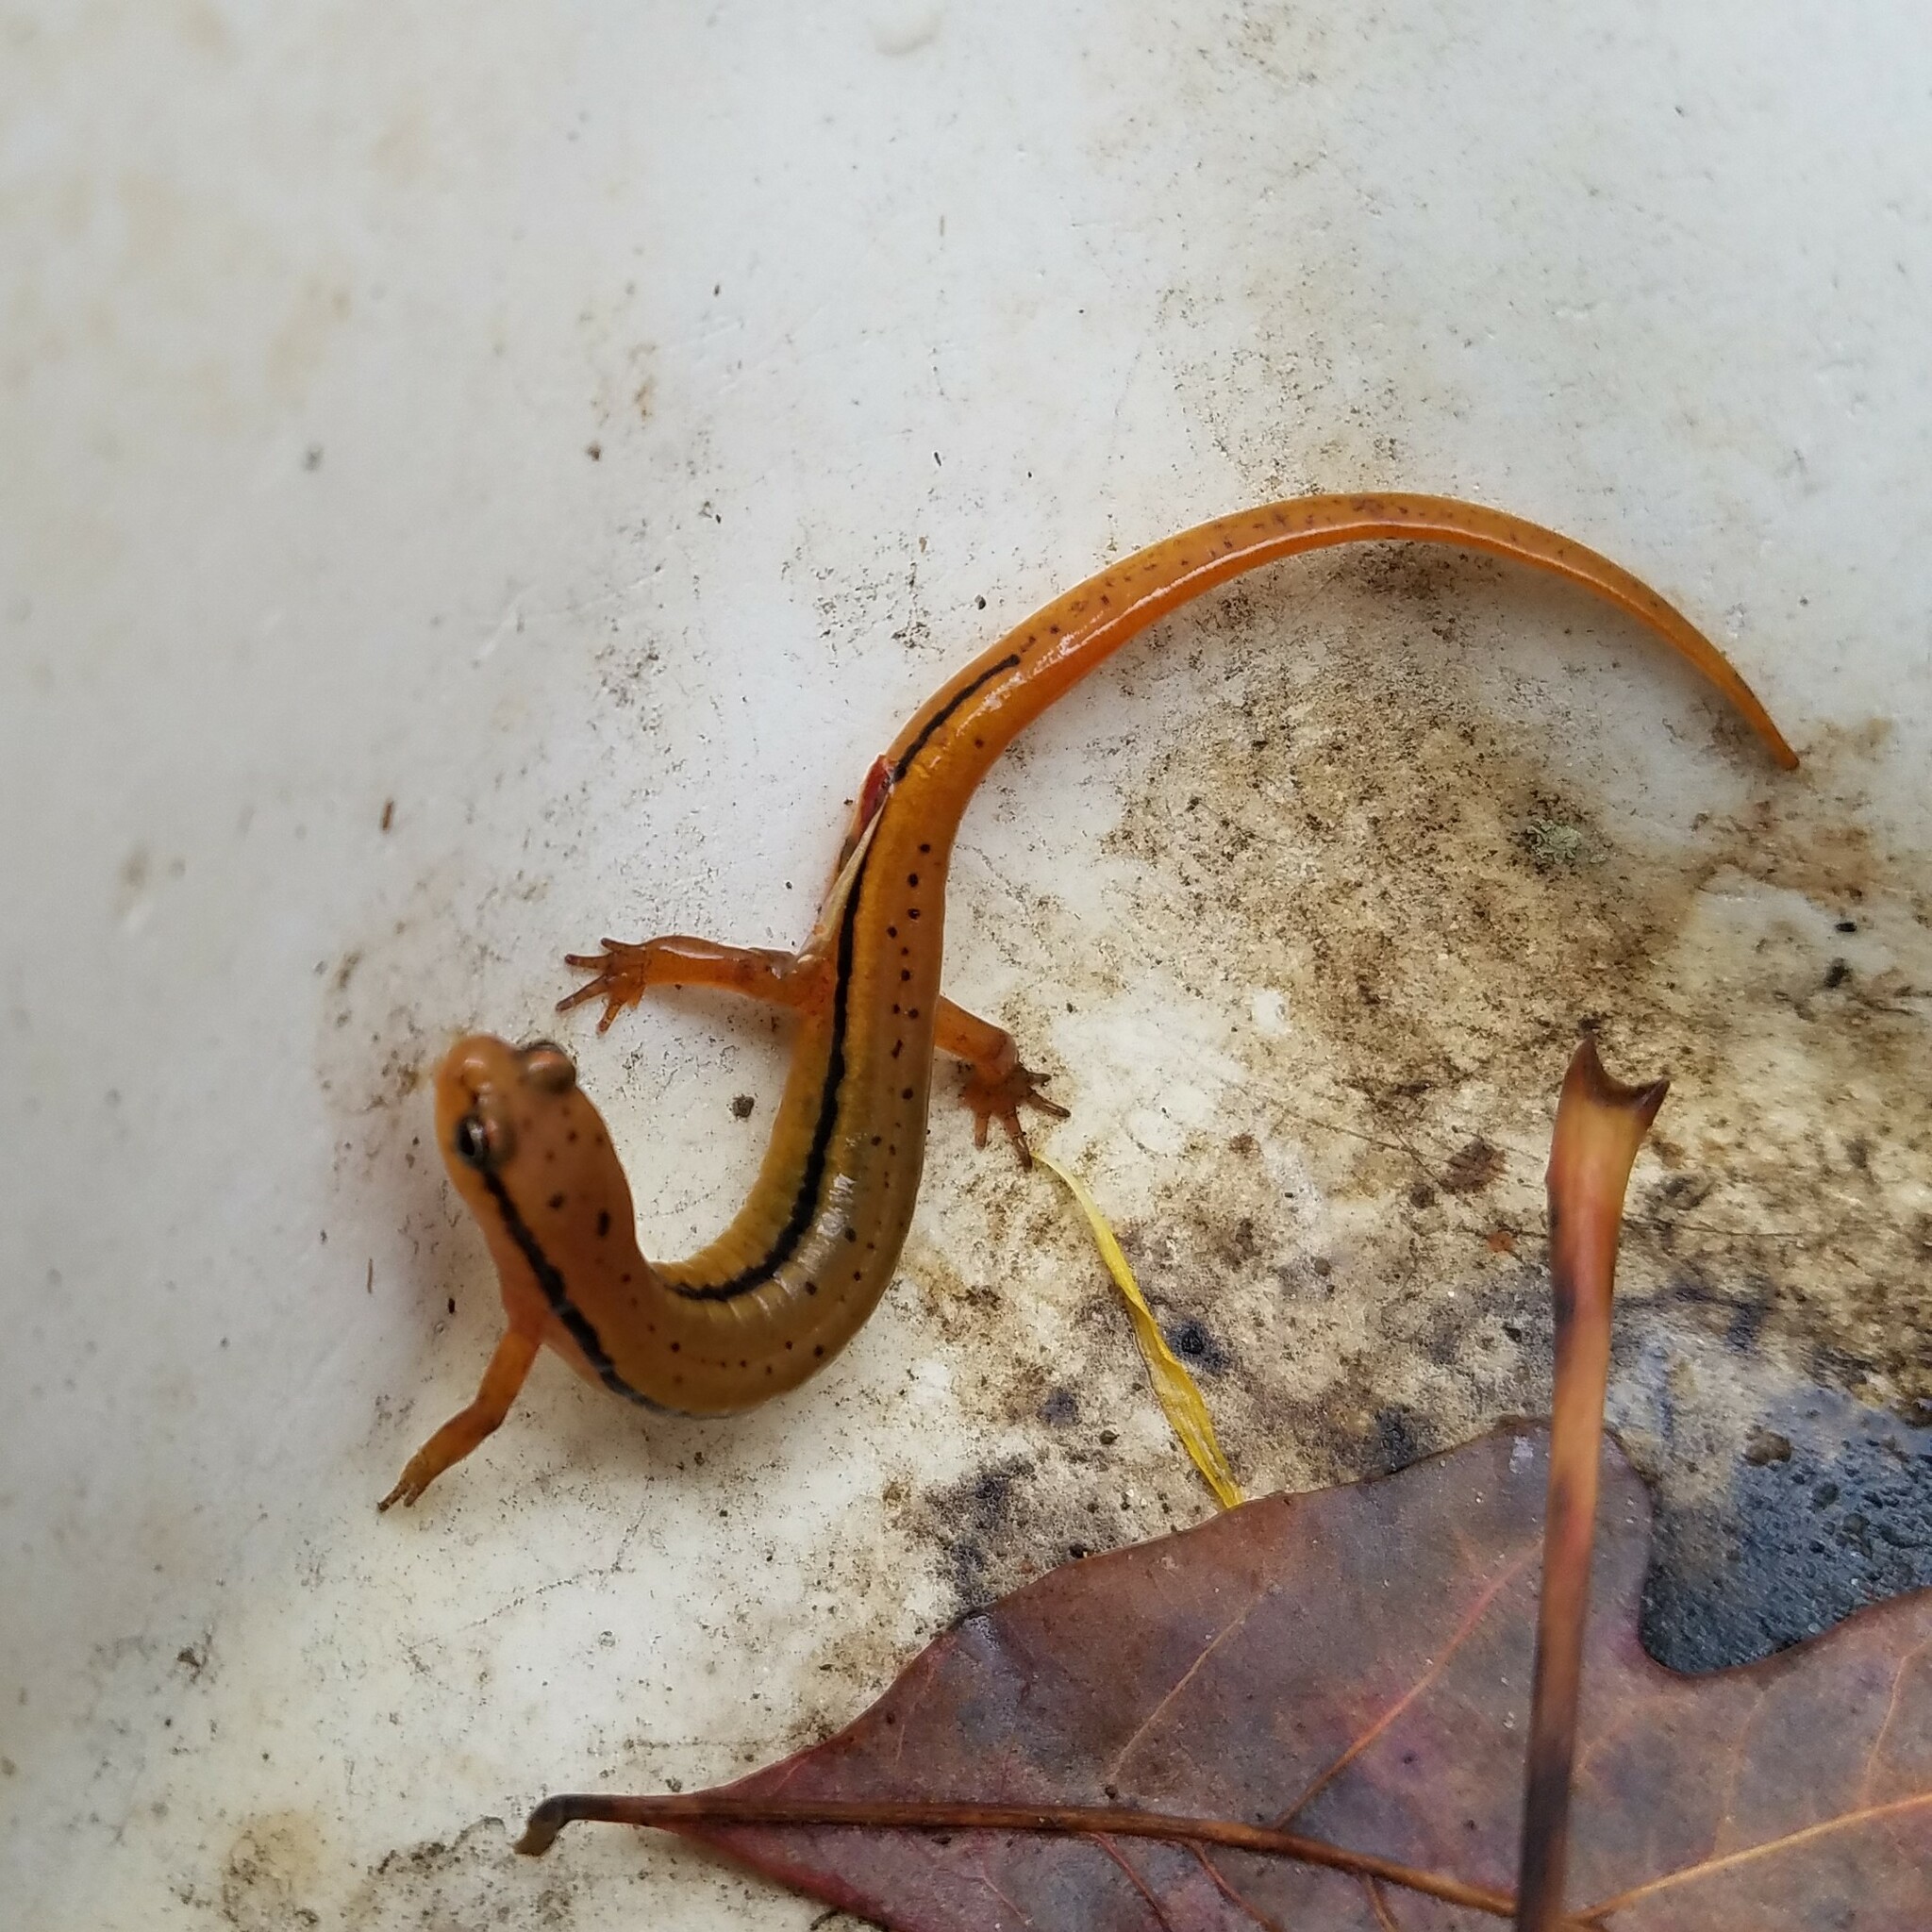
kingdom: Animalia
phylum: Chordata
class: Amphibia
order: Caudata
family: Plethodontidae
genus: Eurycea
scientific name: Eurycea wilderae
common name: Blue ridge two-lined salamander
